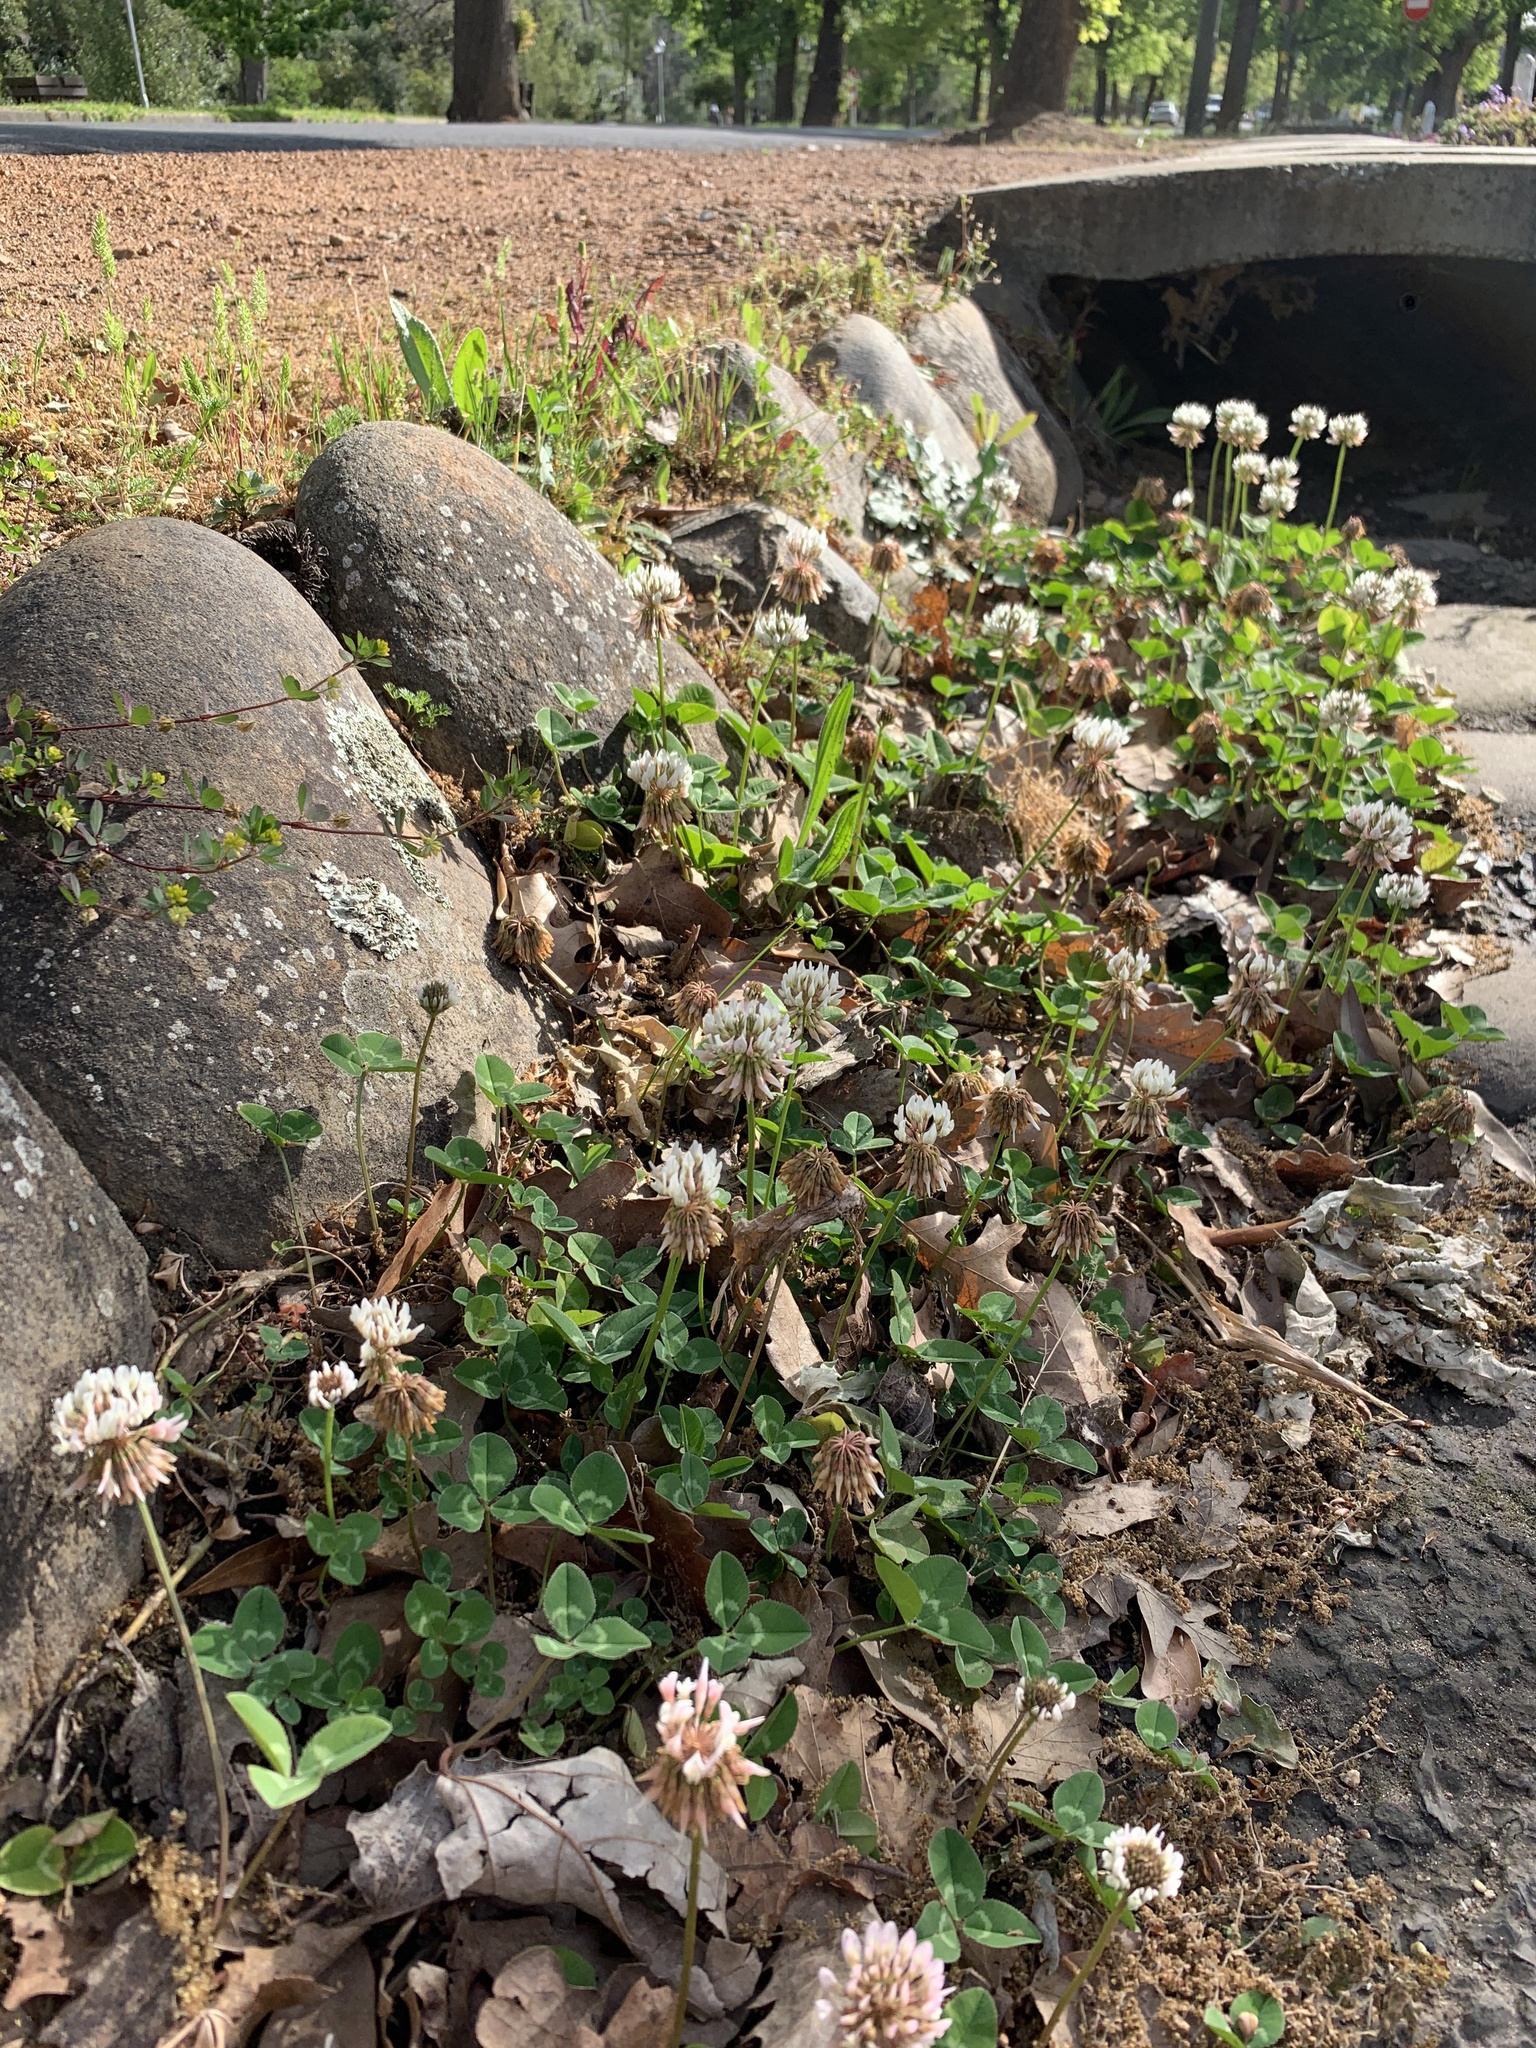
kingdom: Plantae
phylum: Tracheophyta
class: Magnoliopsida
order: Fabales
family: Fabaceae
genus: Trifolium
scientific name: Trifolium repens
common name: White clover
